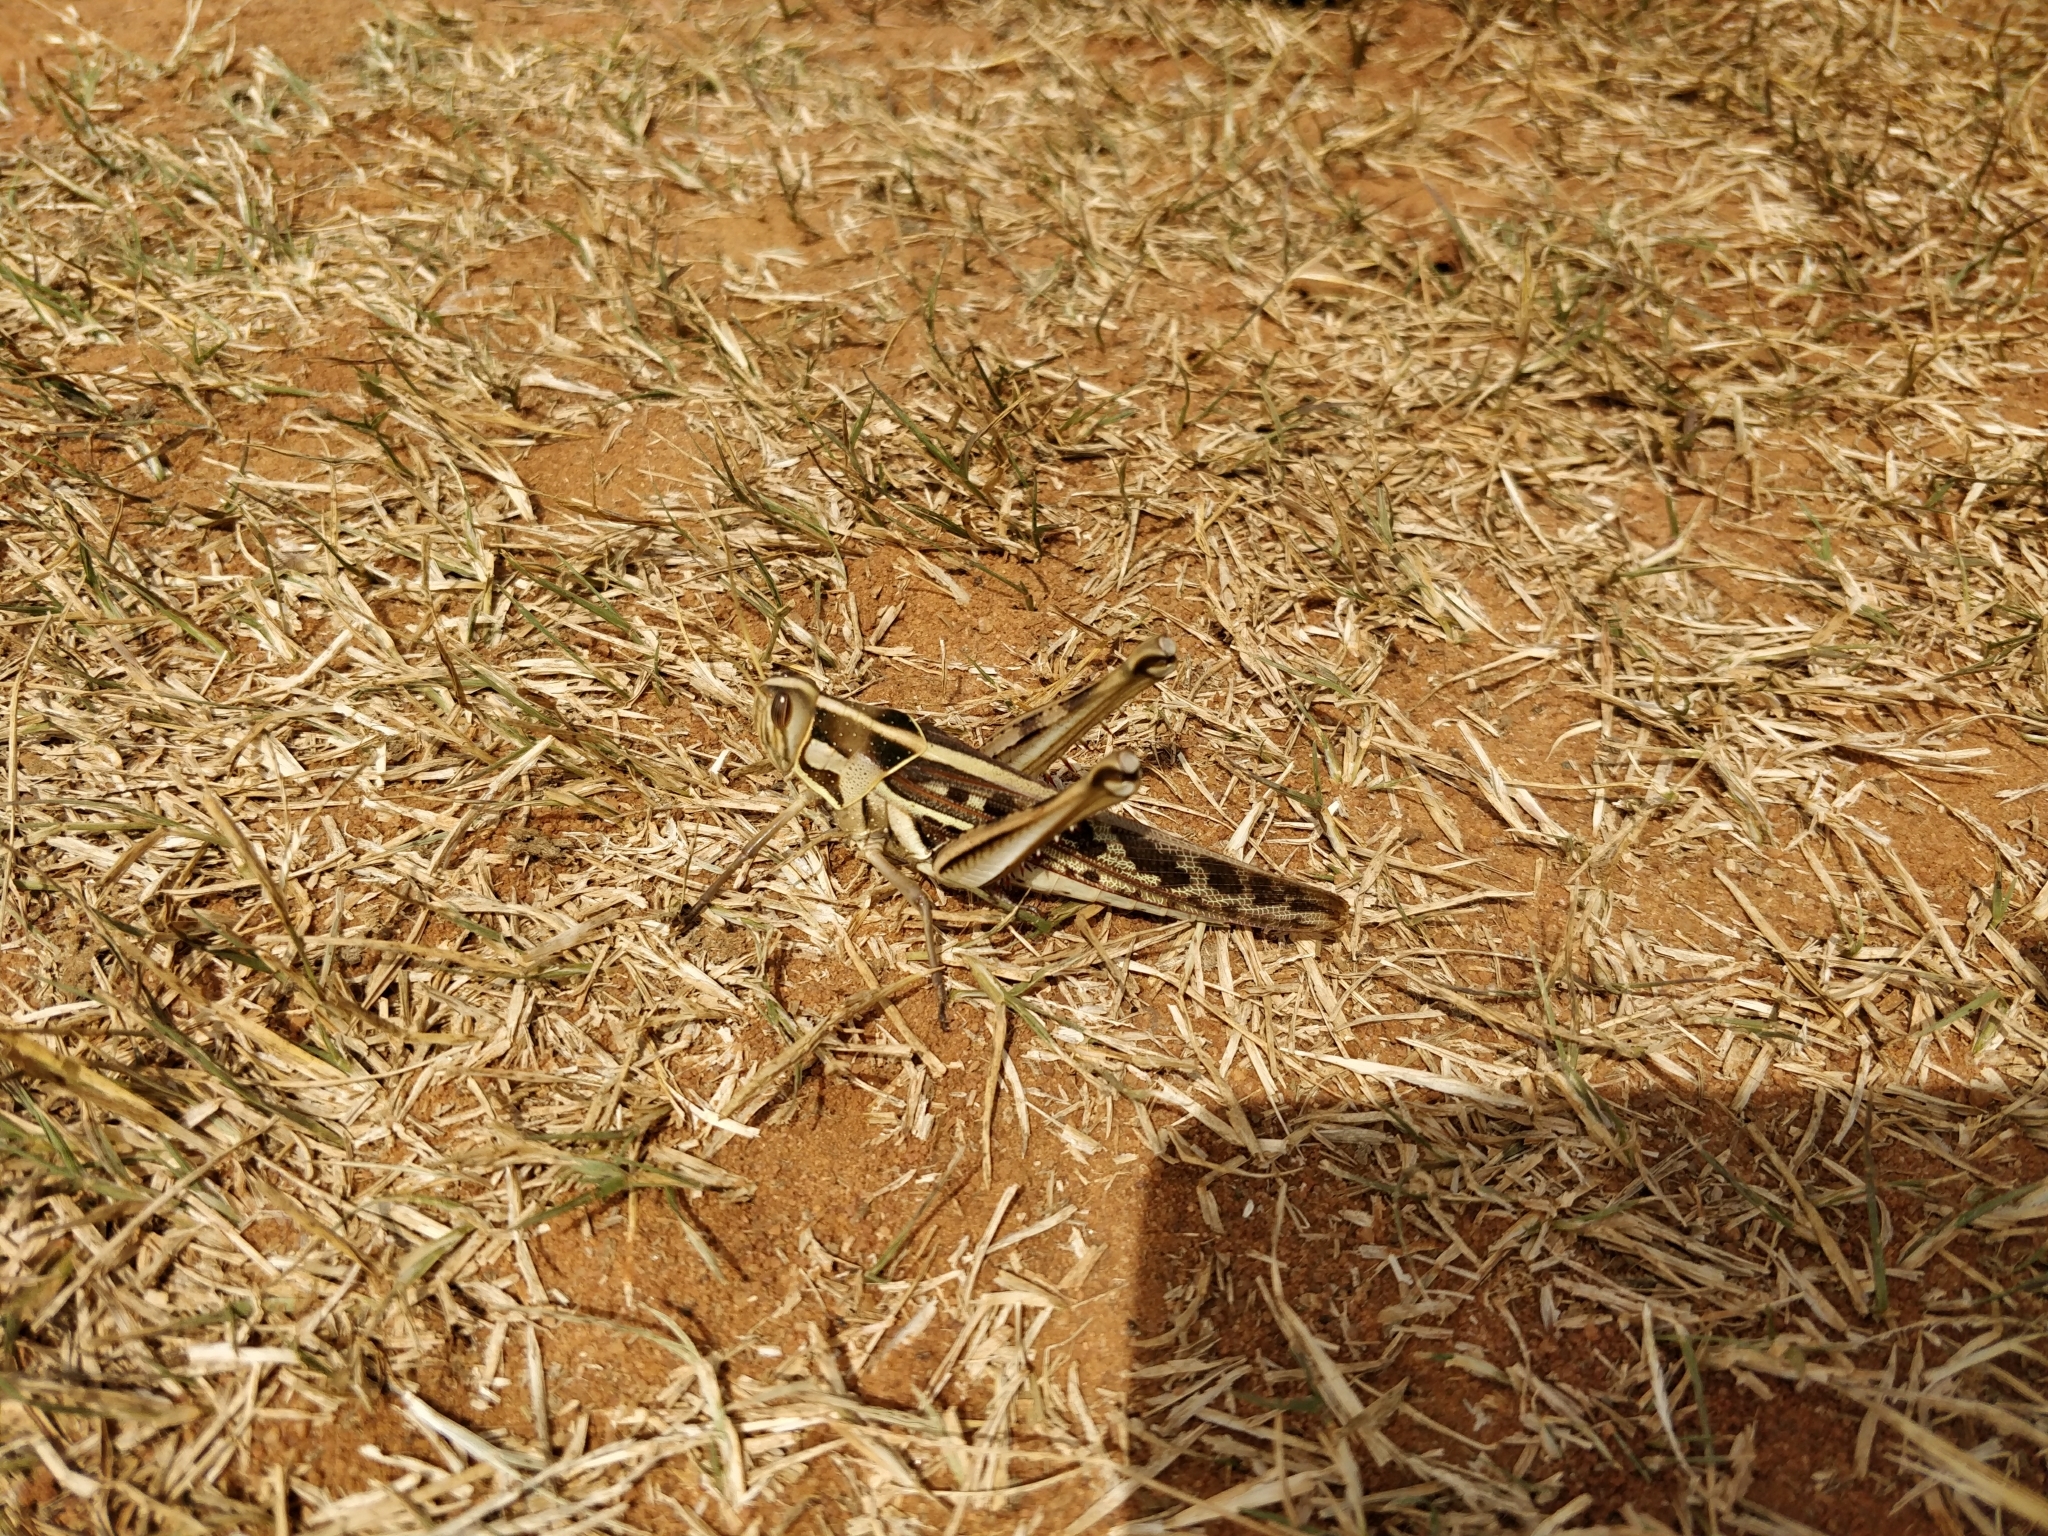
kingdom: Animalia
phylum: Arthropoda
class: Insecta
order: Orthoptera
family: Acrididae
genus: Cyrtacanthacris
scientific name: Cyrtacanthacris tatarica
